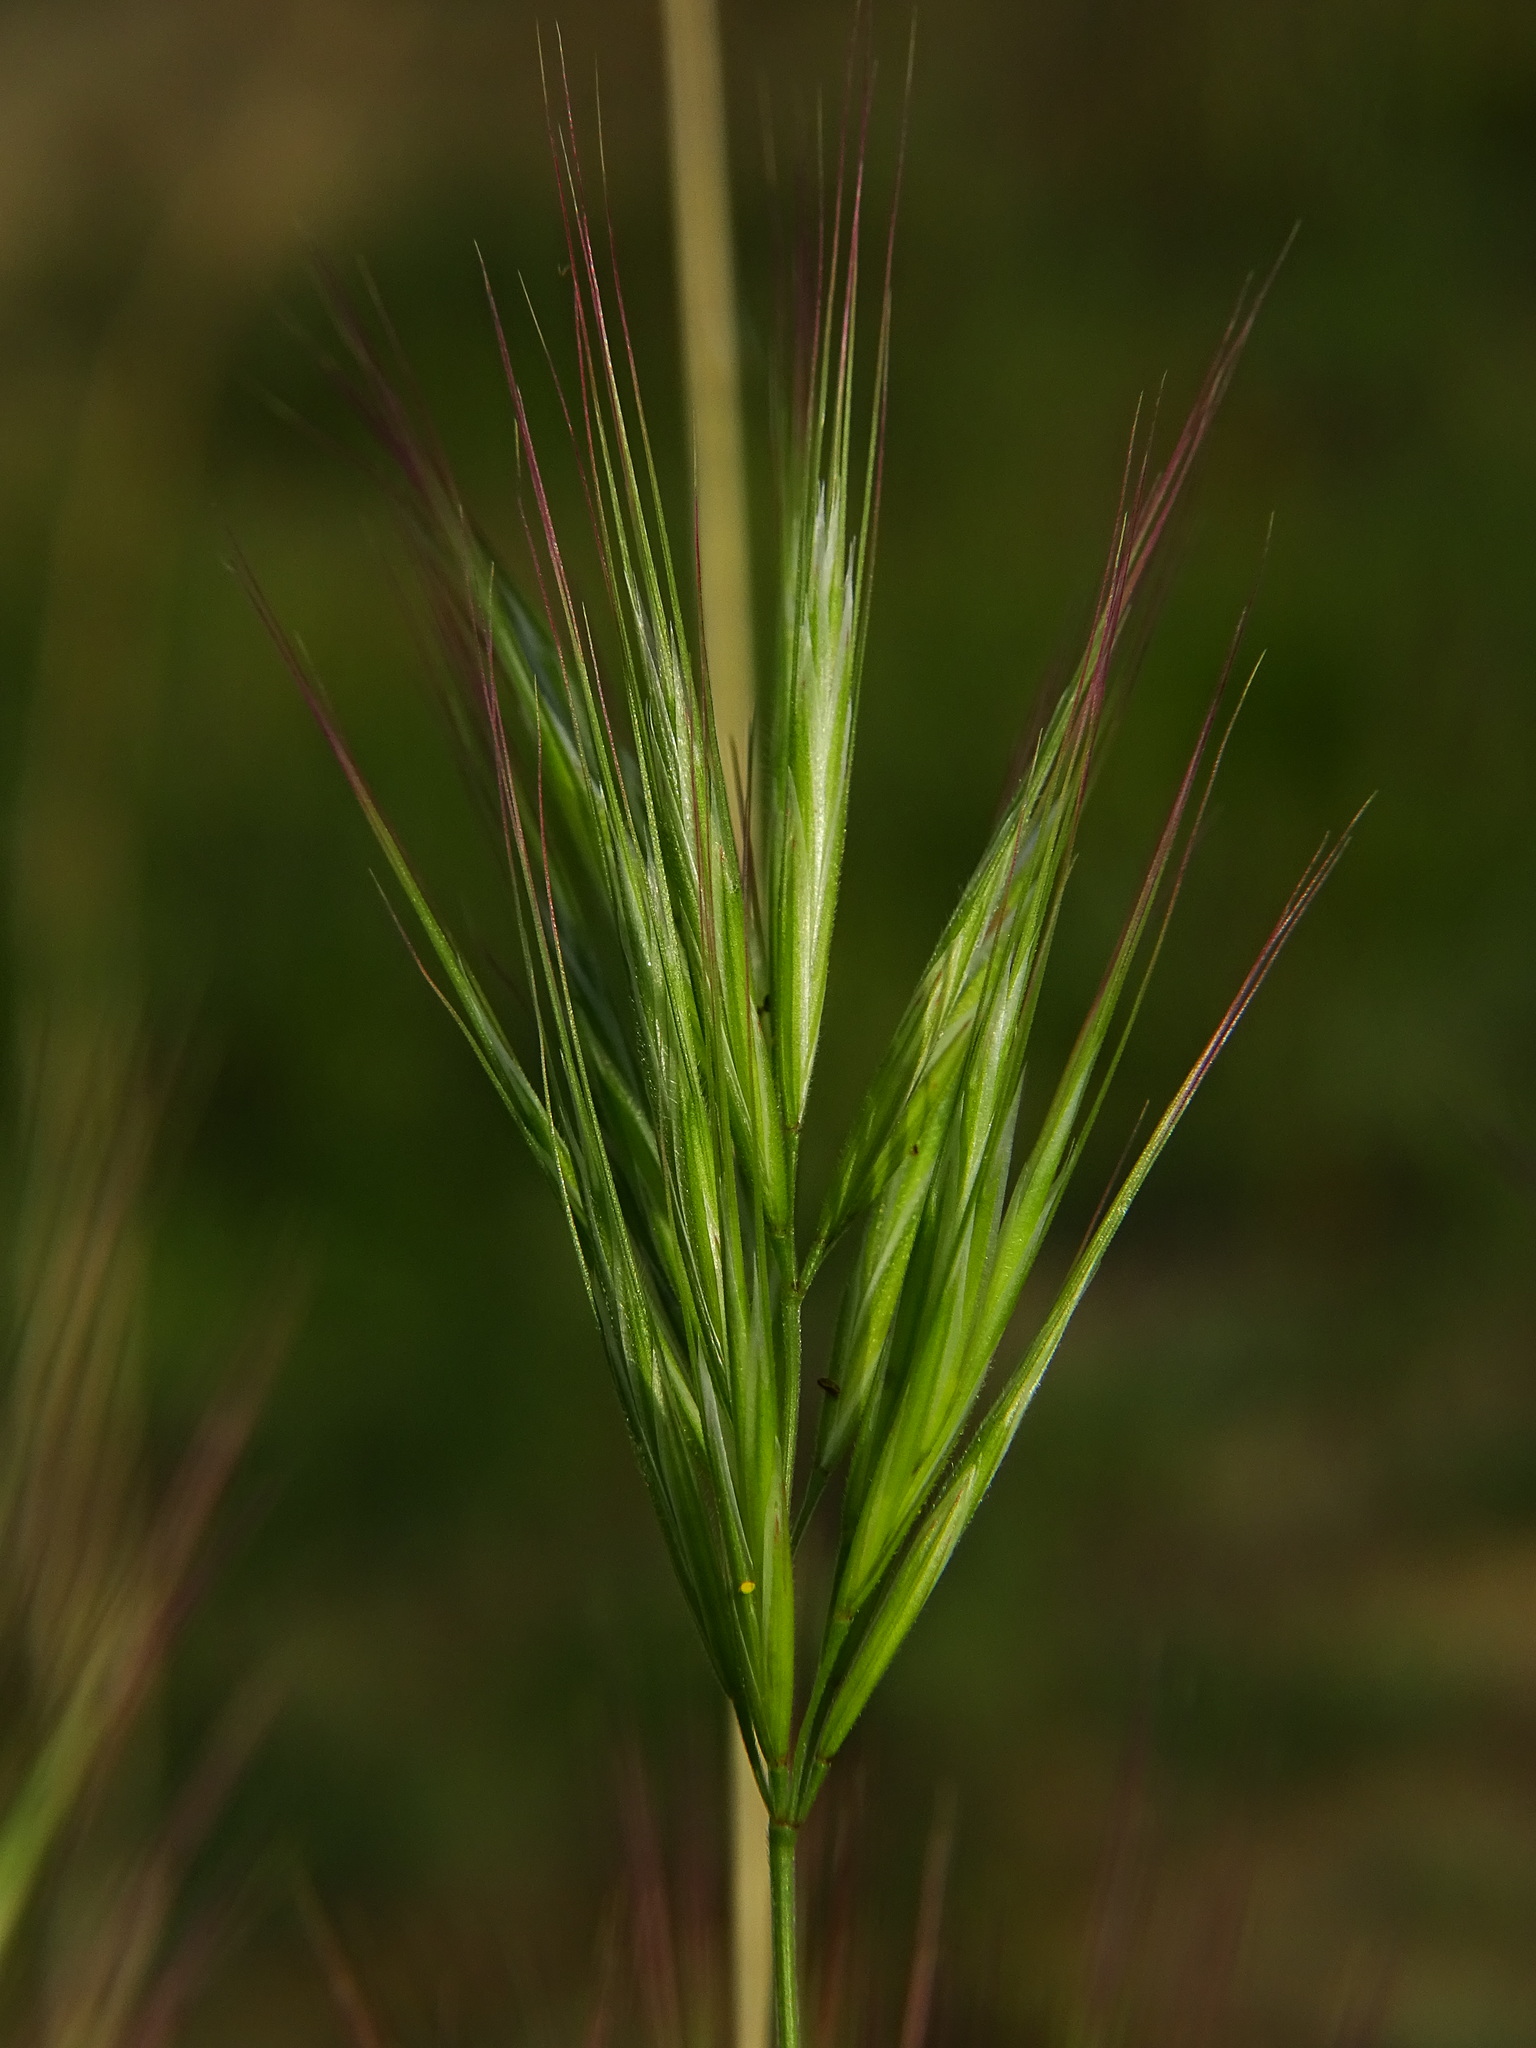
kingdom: Plantae
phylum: Tracheophyta
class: Liliopsida
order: Poales
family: Poaceae
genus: Bromus
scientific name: Bromus madritensis
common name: Compact brome
